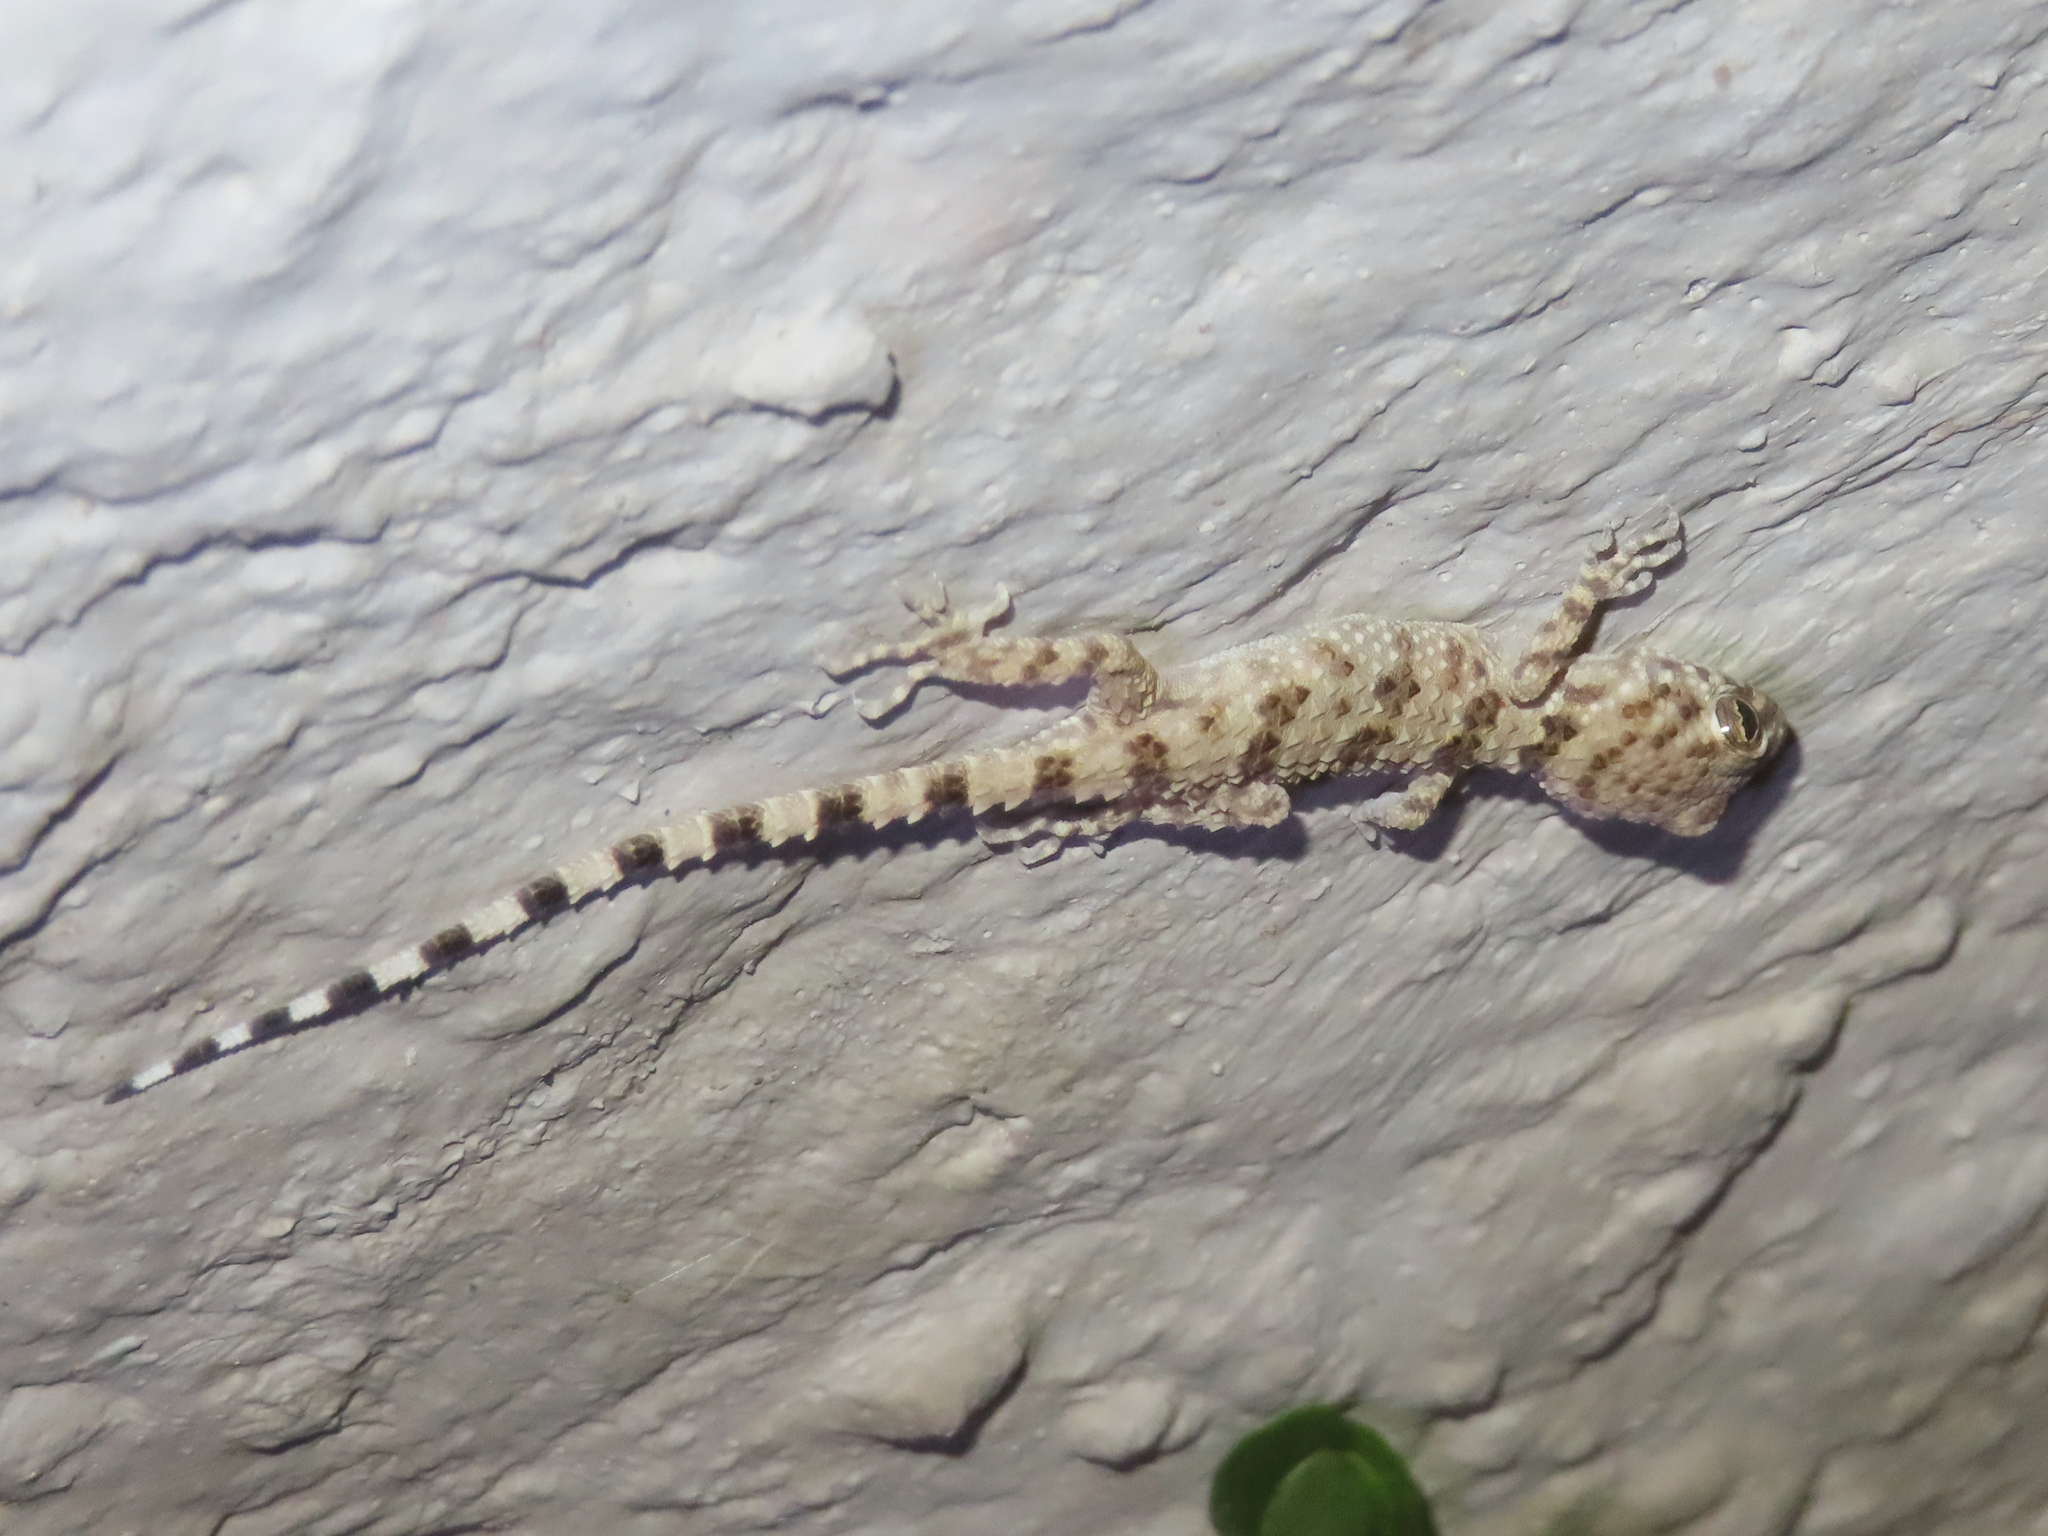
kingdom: Animalia
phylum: Chordata
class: Squamata
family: Gekkonidae
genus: Tenuidactylus
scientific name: Tenuidactylus caspius
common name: Caspian bent-toed gecko
